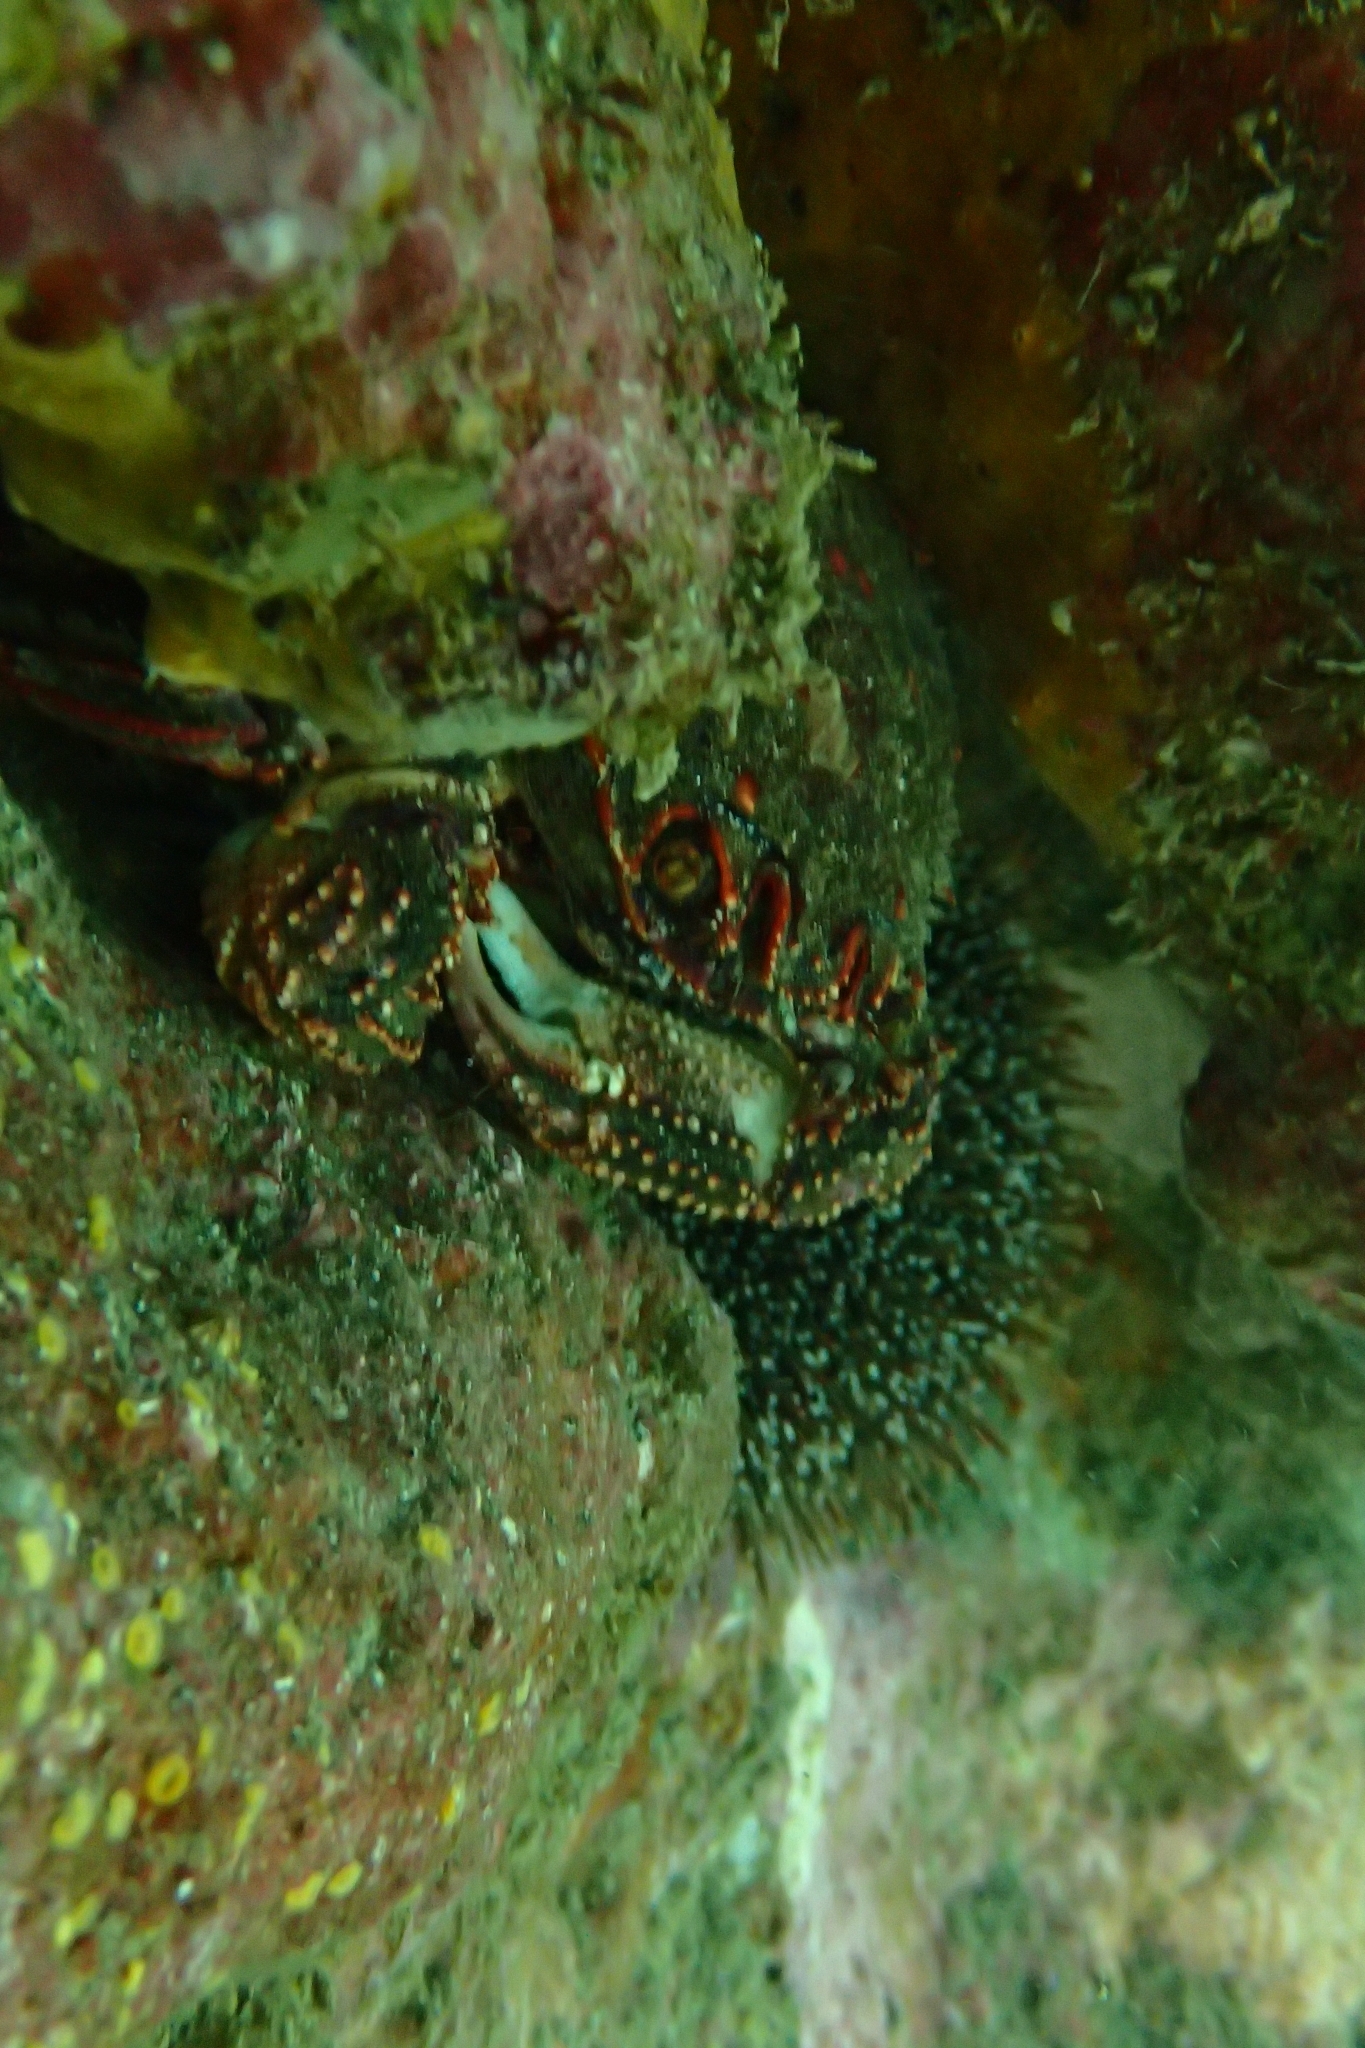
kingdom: Animalia
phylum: Arthropoda
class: Malacostraca
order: Decapoda
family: Plagusiidae
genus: Guinusia
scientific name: Guinusia chabrus
